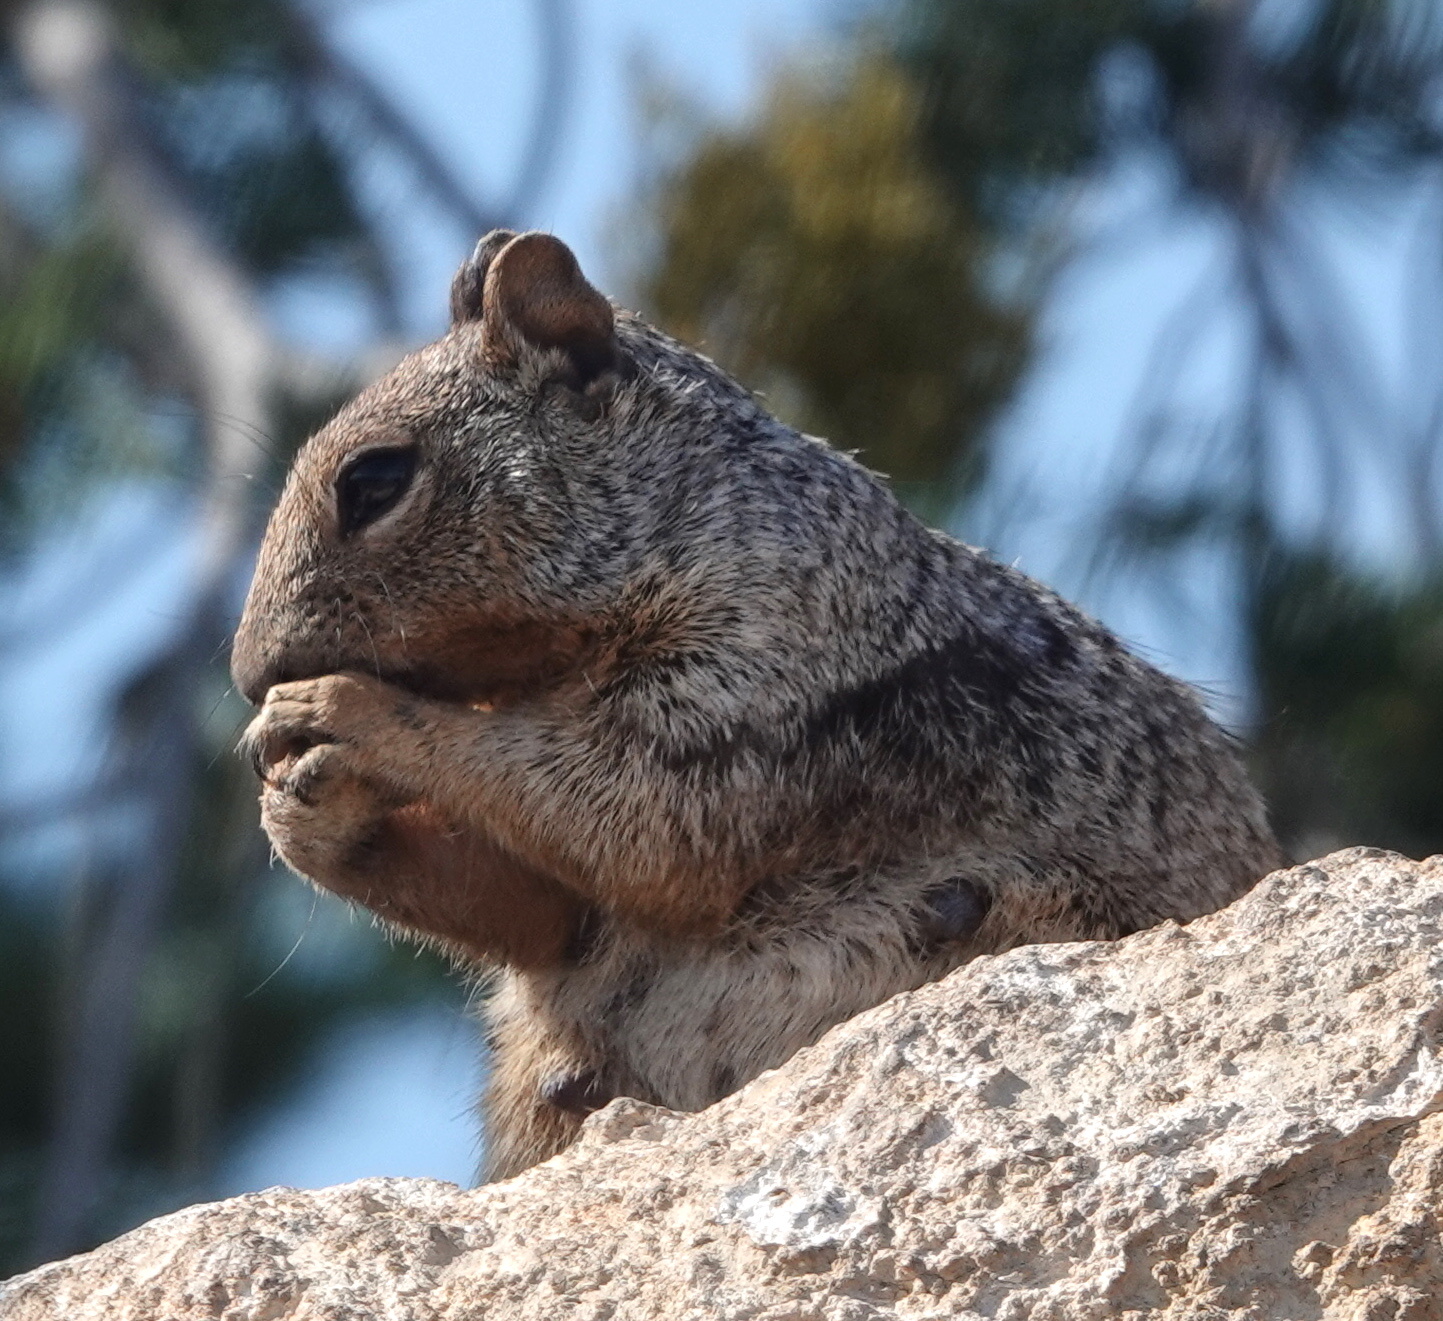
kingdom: Animalia
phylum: Chordata
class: Mammalia
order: Rodentia
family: Sciuridae
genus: Otospermophilus
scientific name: Otospermophilus variegatus
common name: Rock squirrel
